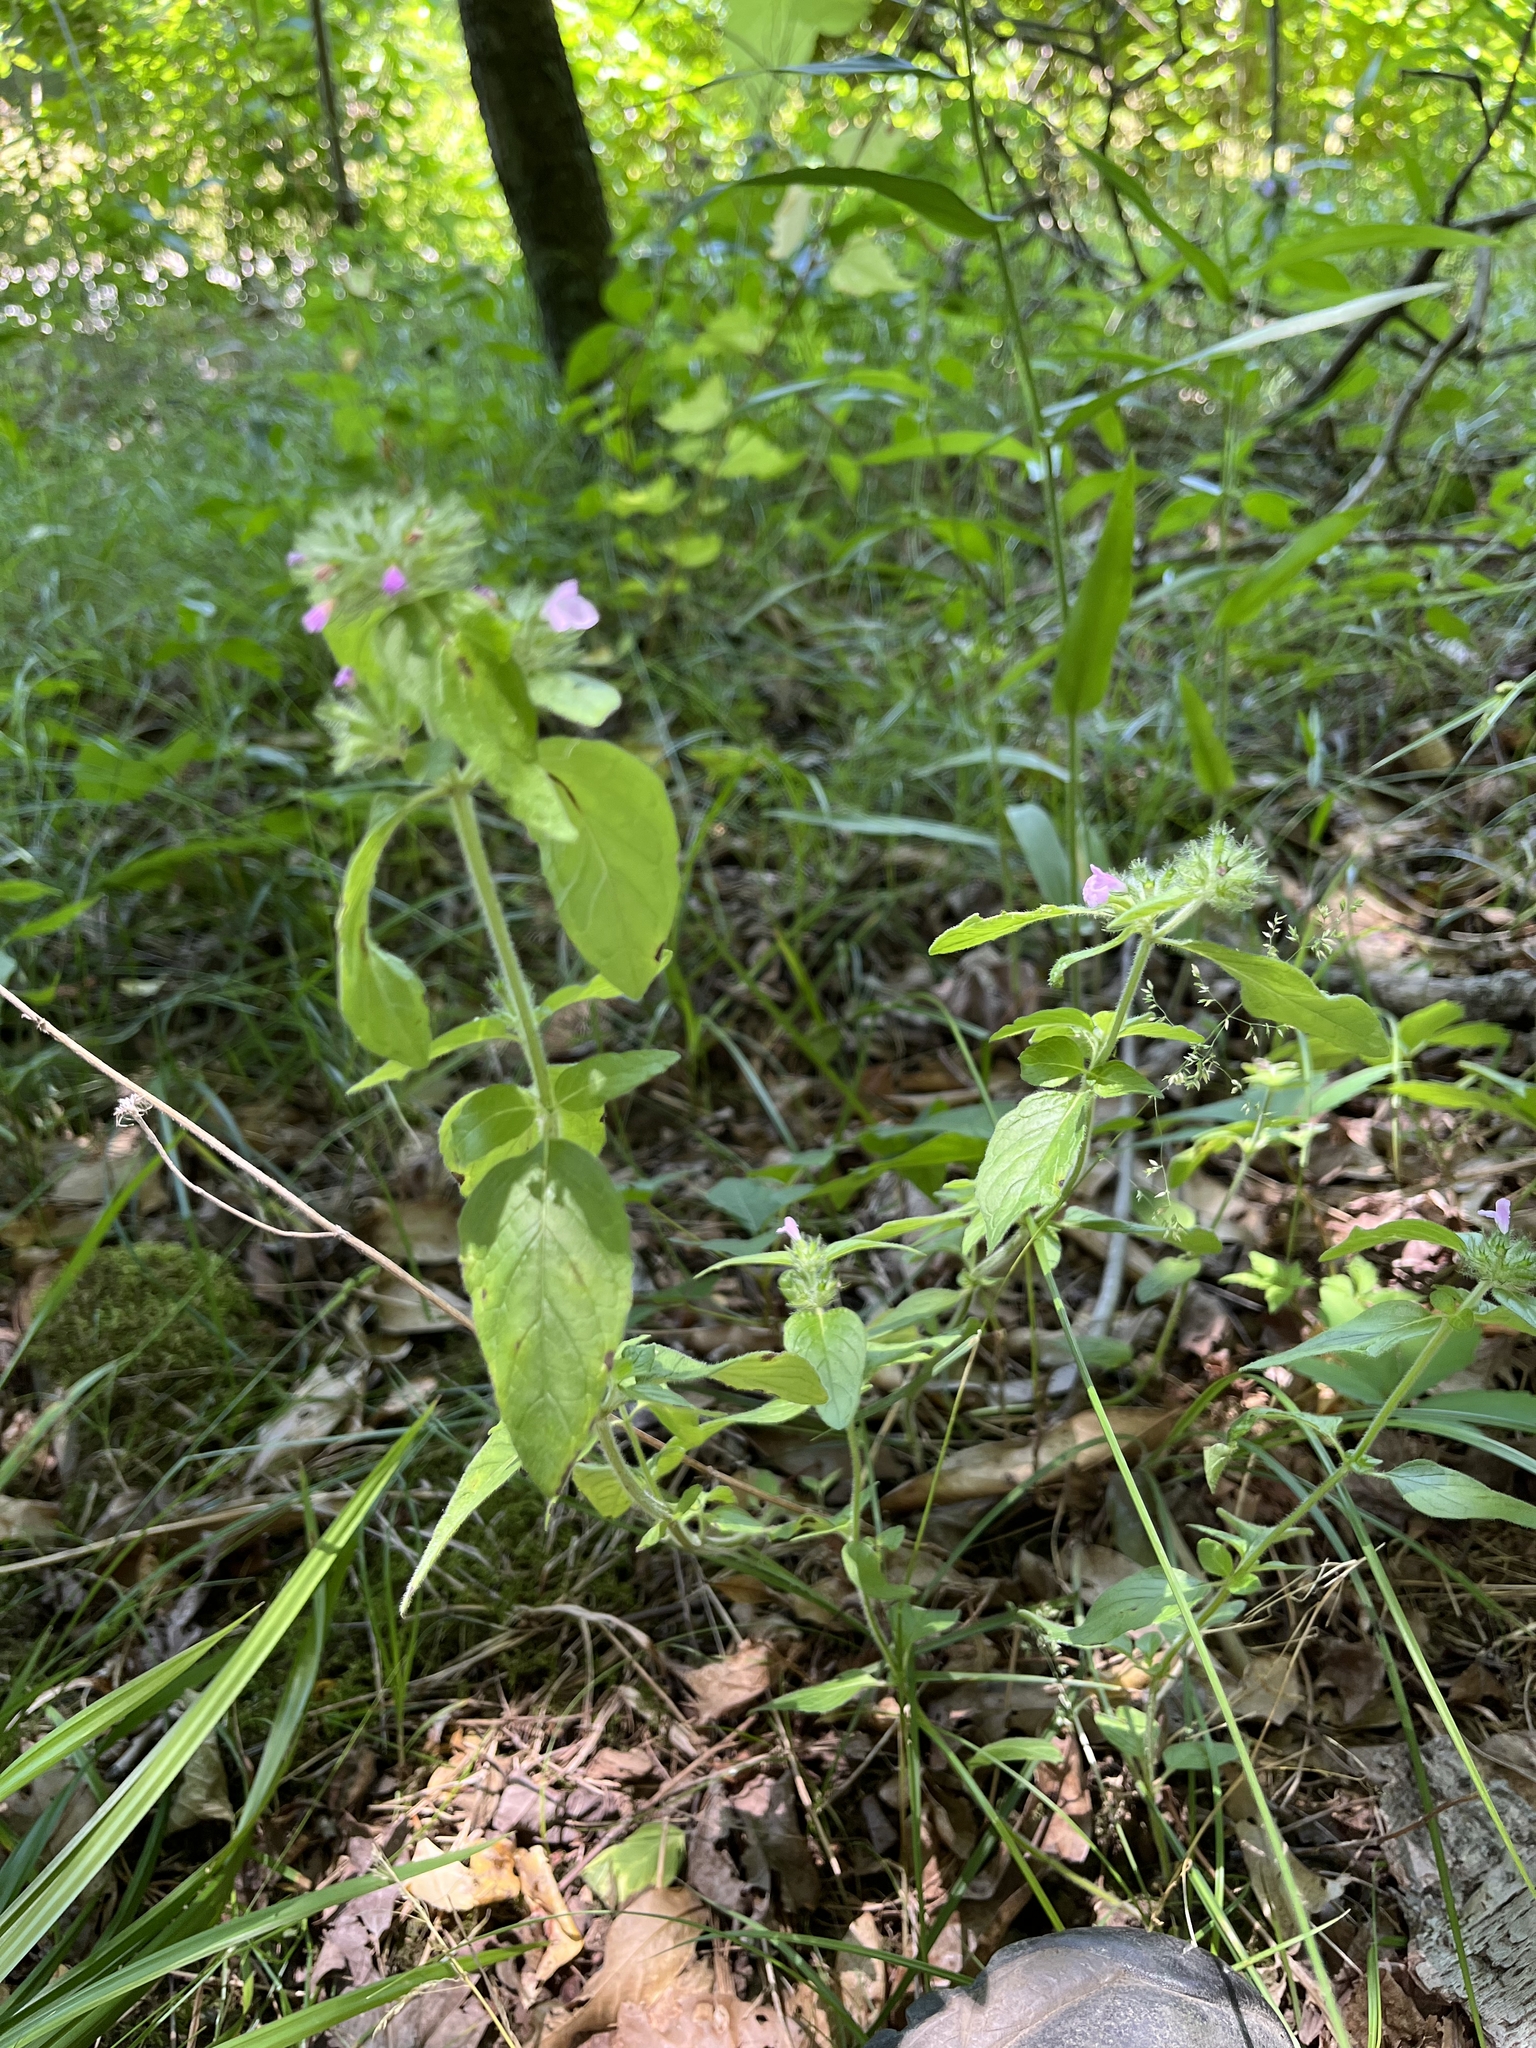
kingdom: Plantae
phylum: Tracheophyta
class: Magnoliopsida
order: Lamiales
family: Lamiaceae
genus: Clinopodium
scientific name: Clinopodium vulgare
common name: Wild basil
